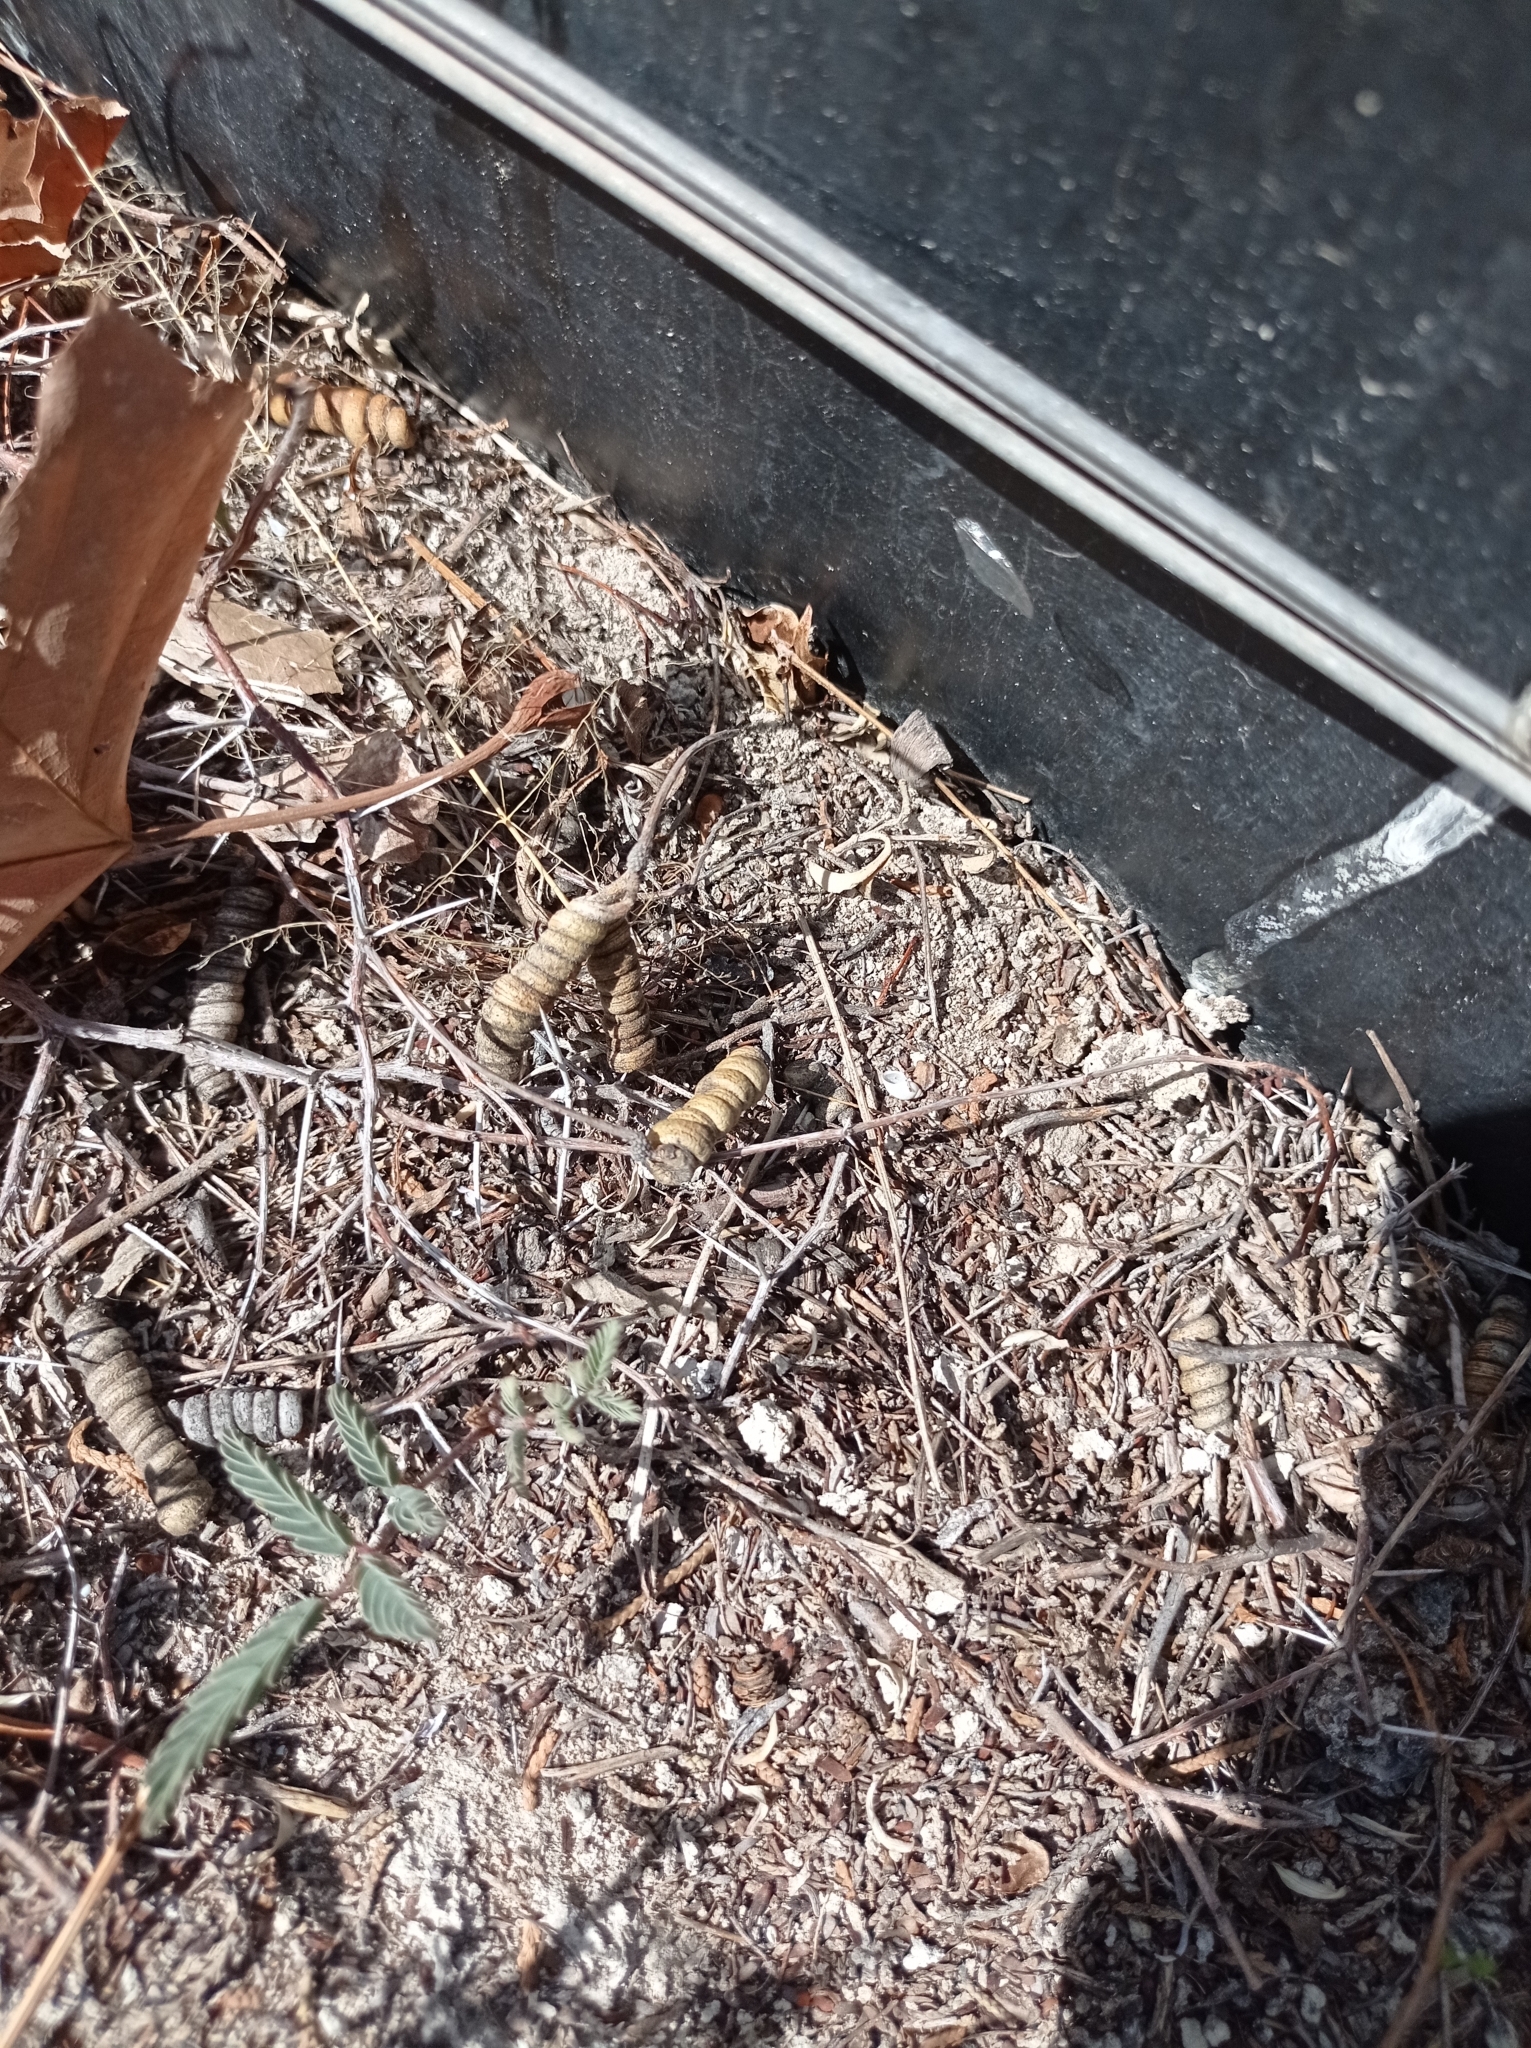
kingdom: Plantae
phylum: Tracheophyta
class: Magnoliopsida
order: Fabales
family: Fabaceae
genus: Prosopis
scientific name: Prosopis strombulifera
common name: Creeping mesquite
